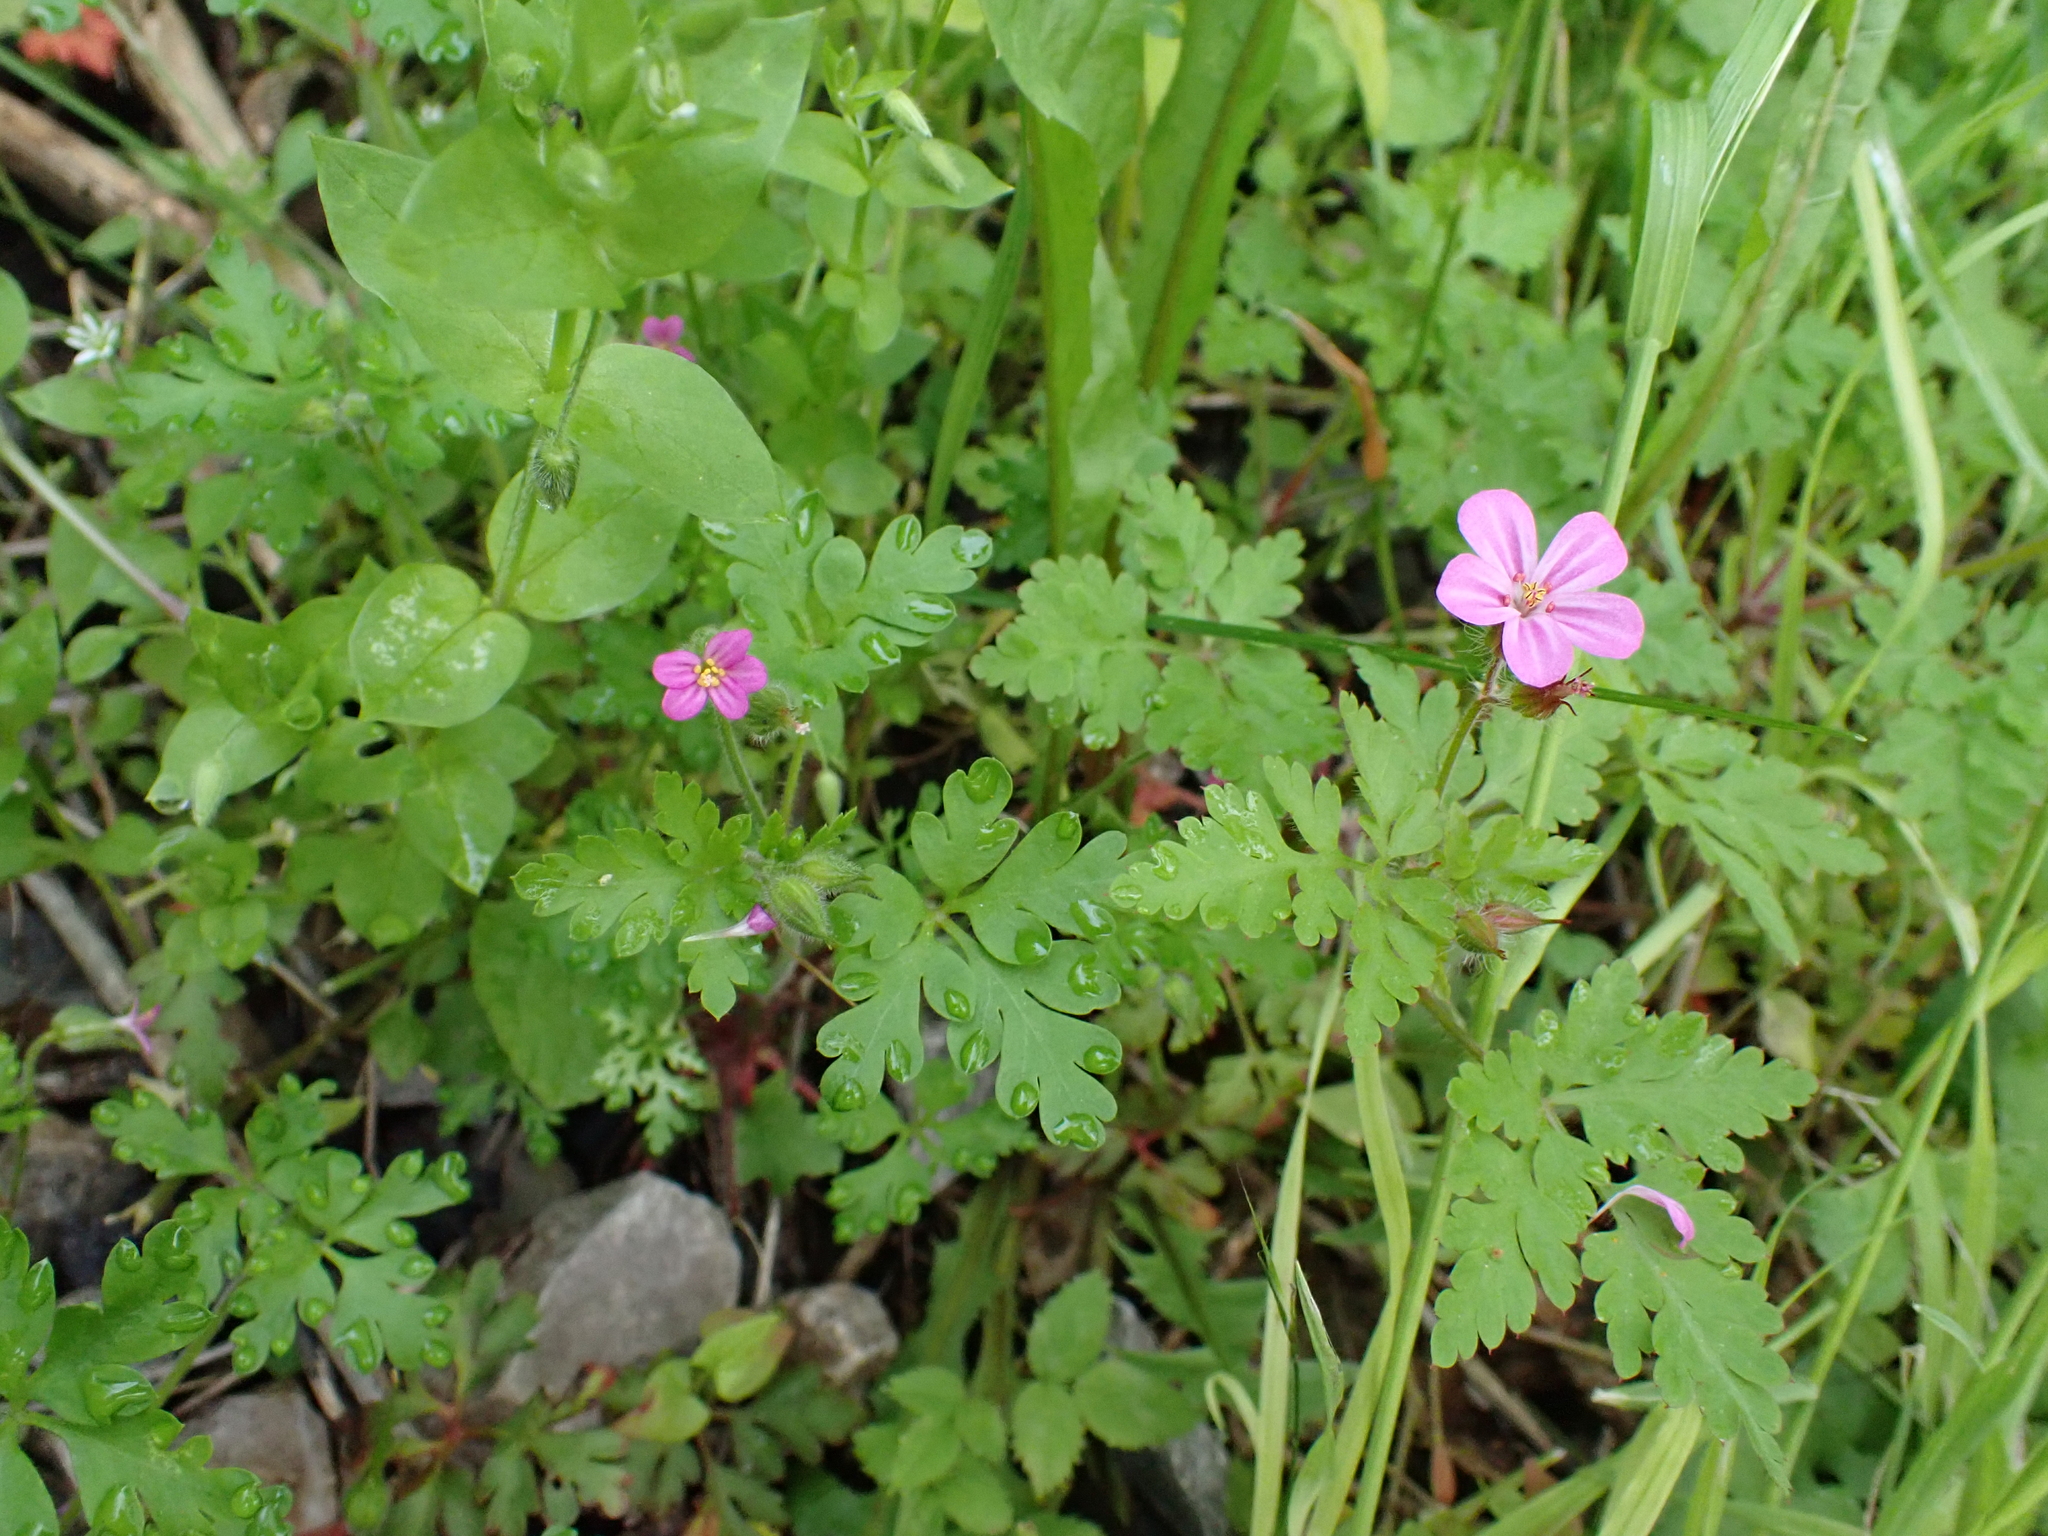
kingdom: Plantae
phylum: Tracheophyta
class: Magnoliopsida
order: Geraniales
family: Geraniaceae
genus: Geranium
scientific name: Geranium purpureum
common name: Little-robin
